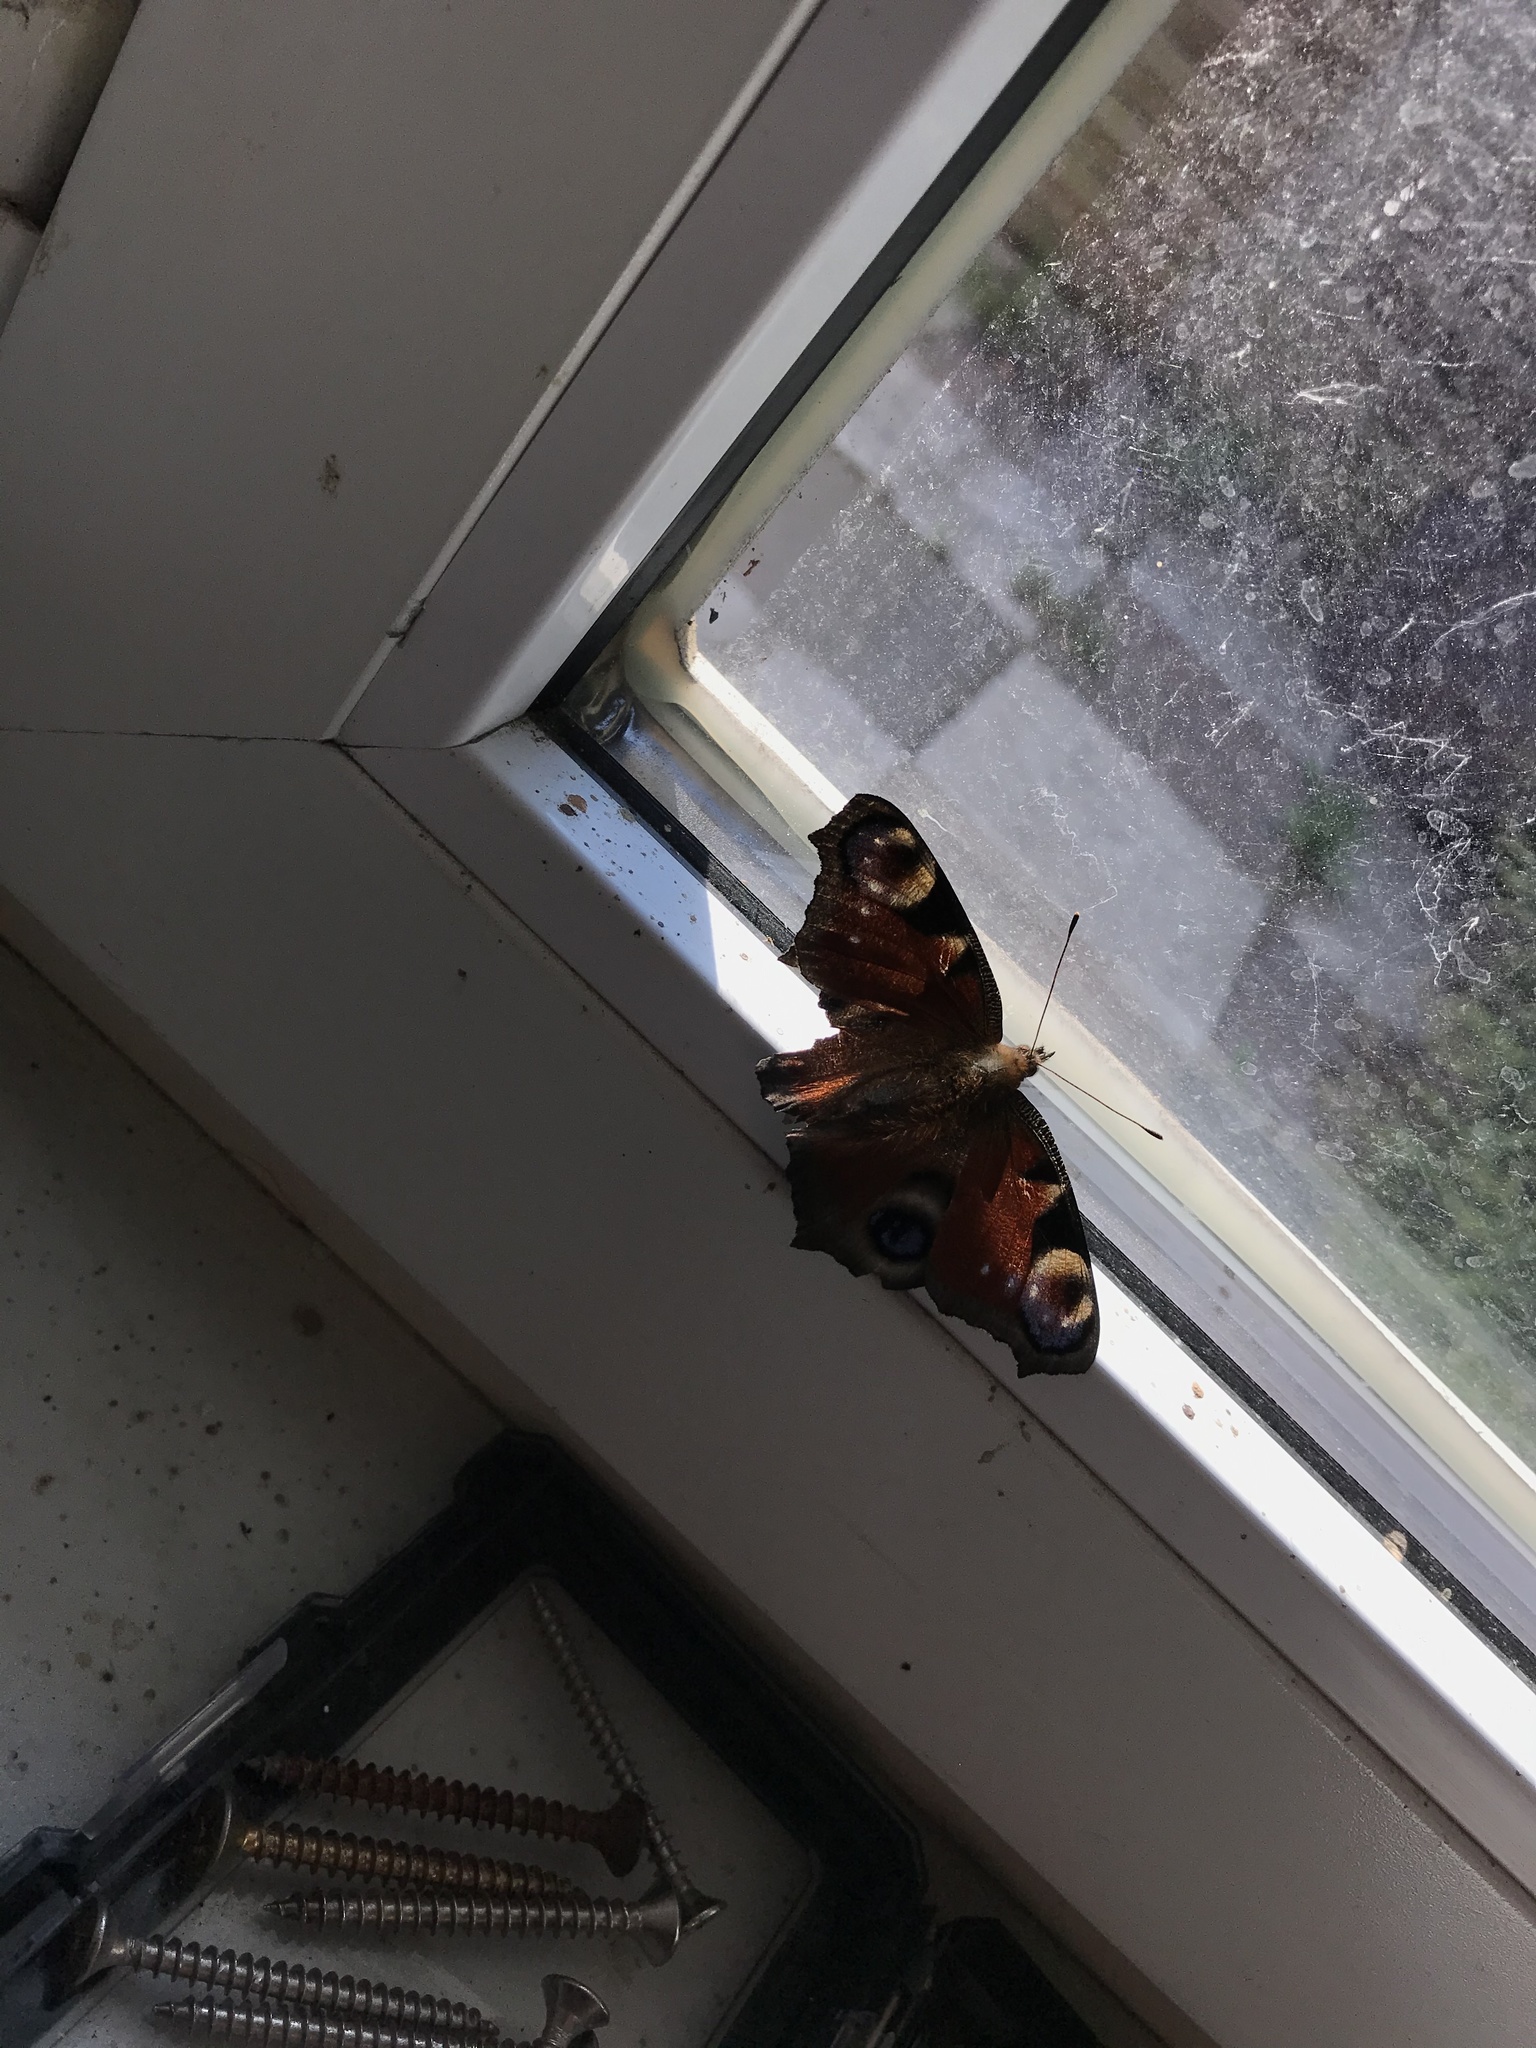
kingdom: Animalia
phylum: Arthropoda
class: Insecta
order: Lepidoptera
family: Nymphalidae
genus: Aglais
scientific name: Aglais io
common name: Peacock
